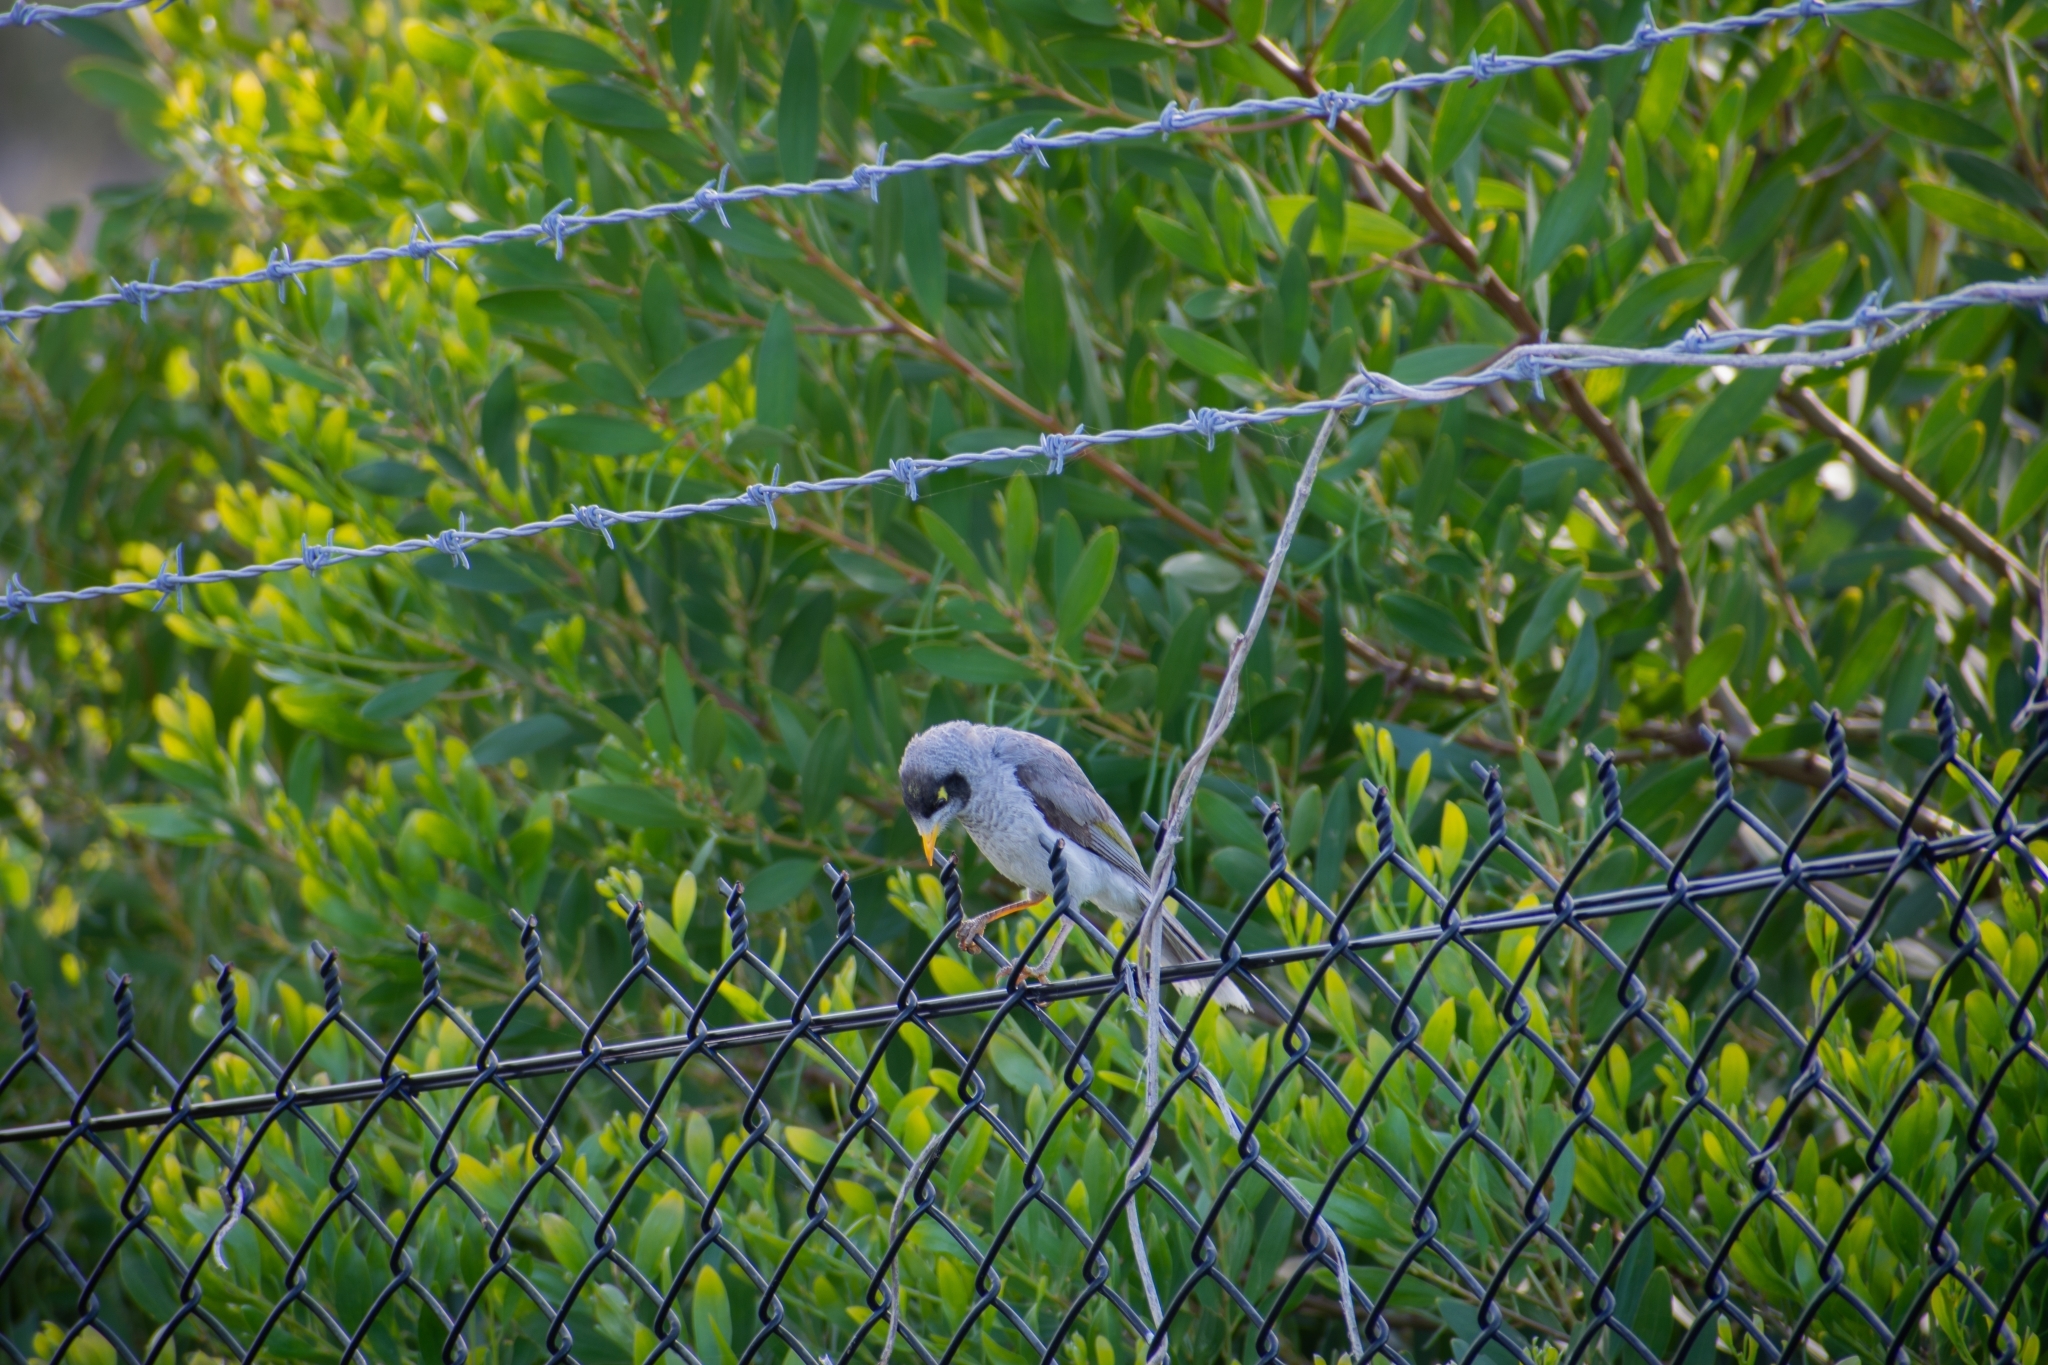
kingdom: Animalia
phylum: Chordata
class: Aves
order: Passeriformes
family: Meliphagidae
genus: Manorina
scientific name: Manorina melanocephala
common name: Noisy miner
